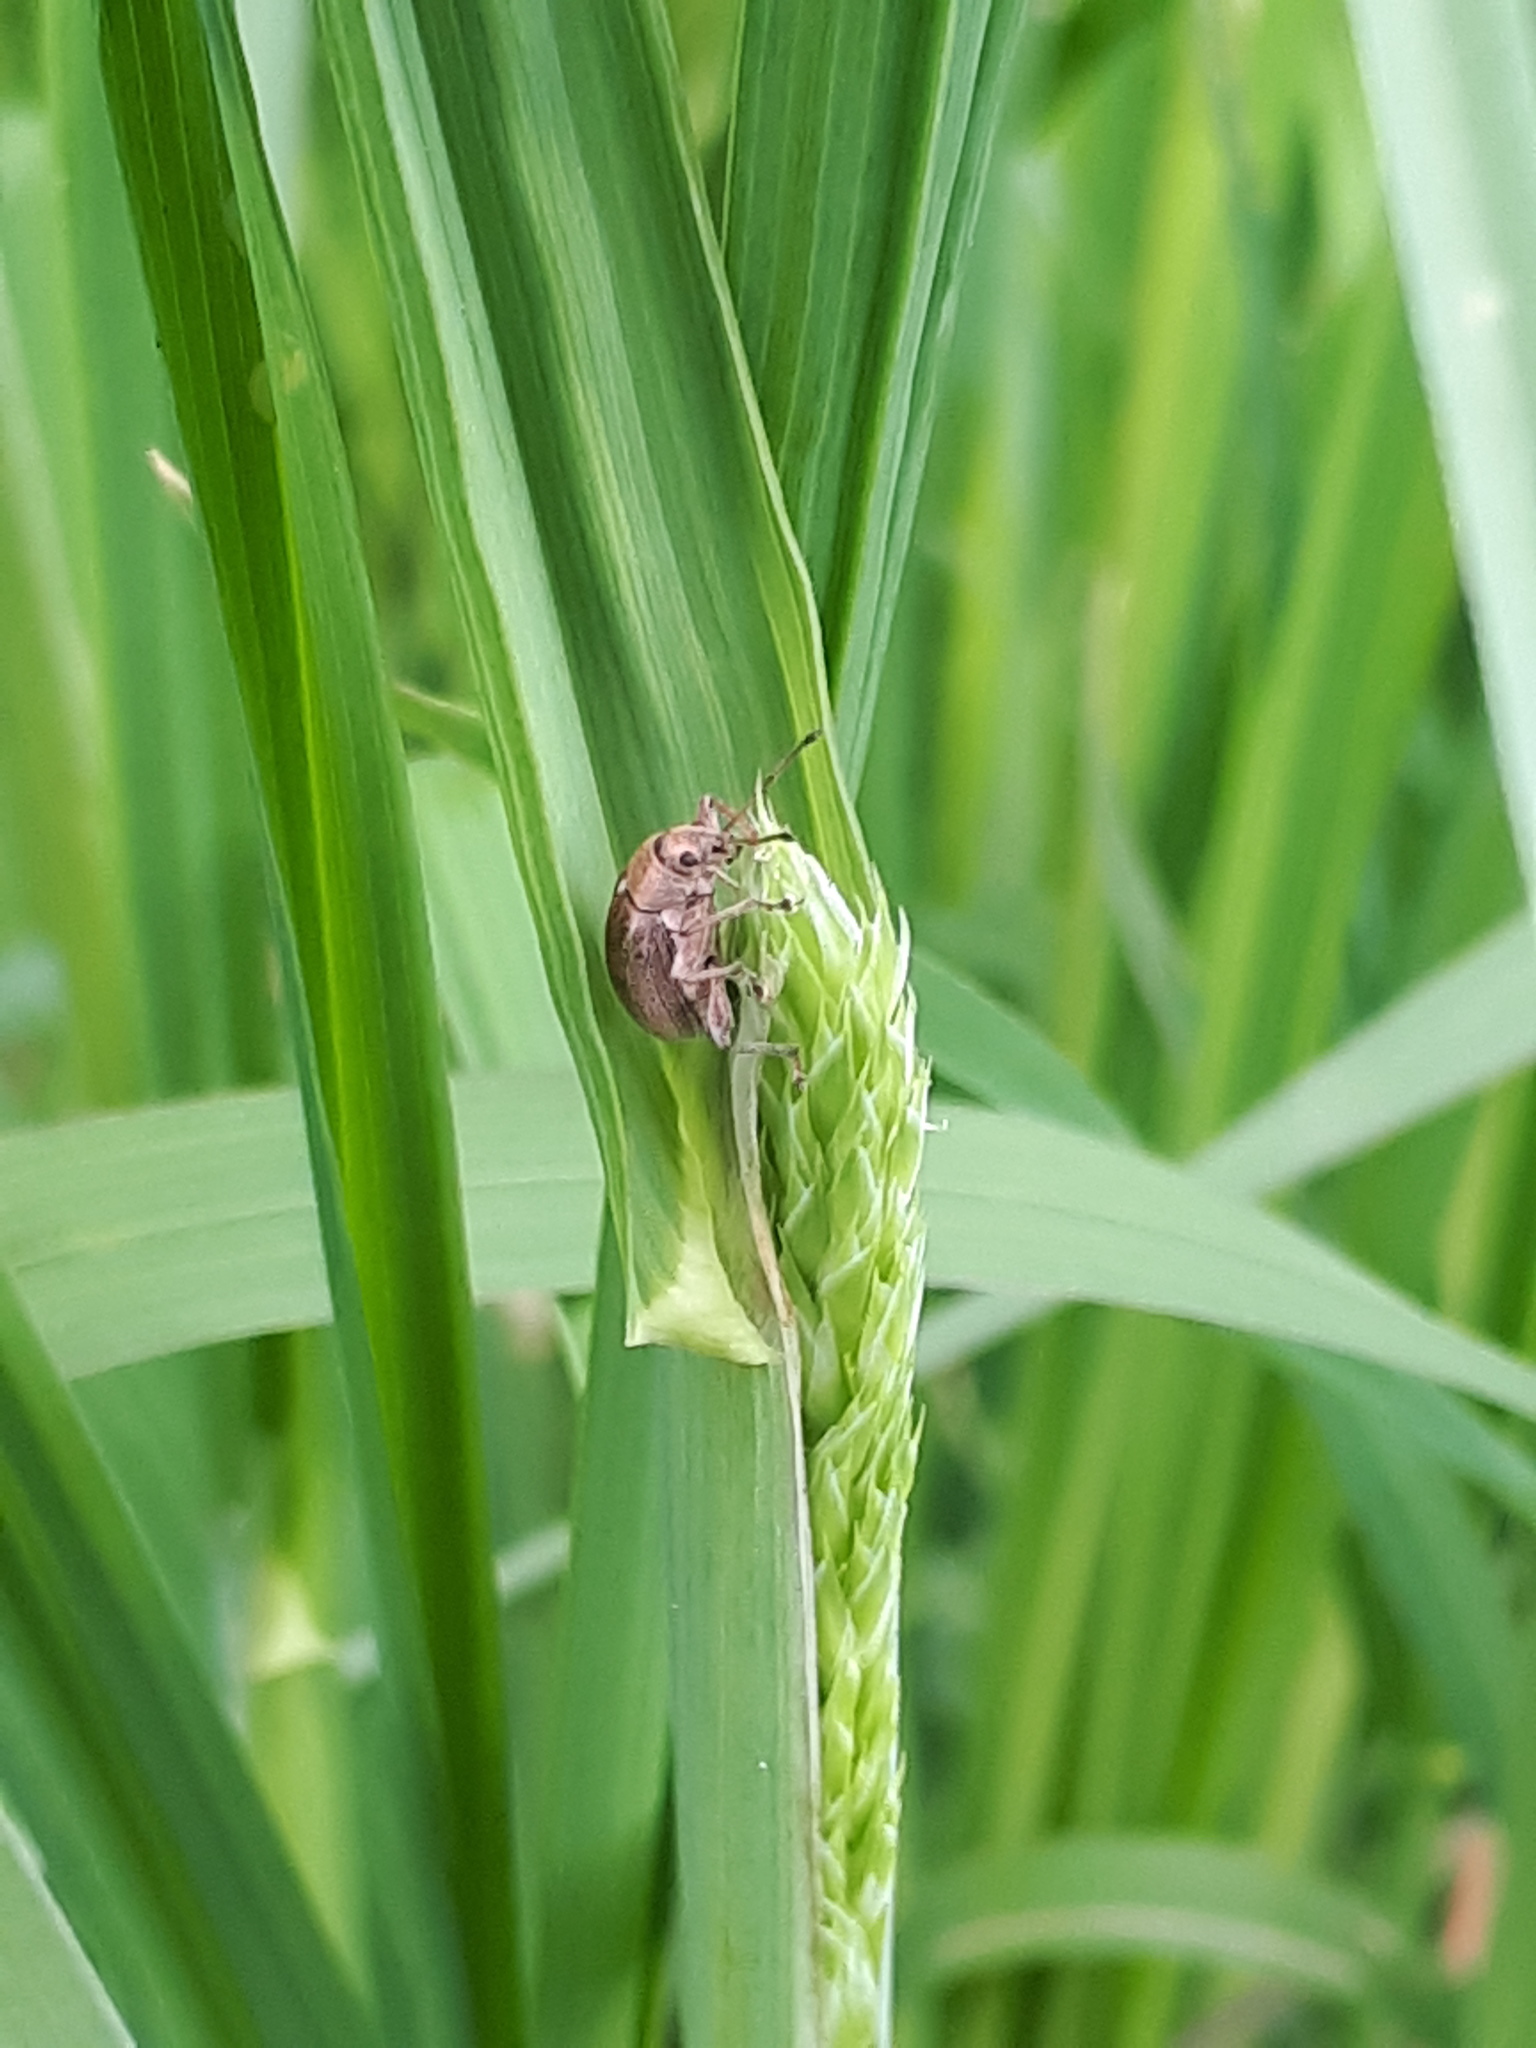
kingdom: Animalia
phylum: Arthropoda
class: Insecta
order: Coleoptera
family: Curculionidae
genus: Phyllobius
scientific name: Phyllobius pyri
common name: Common leaf weevil
